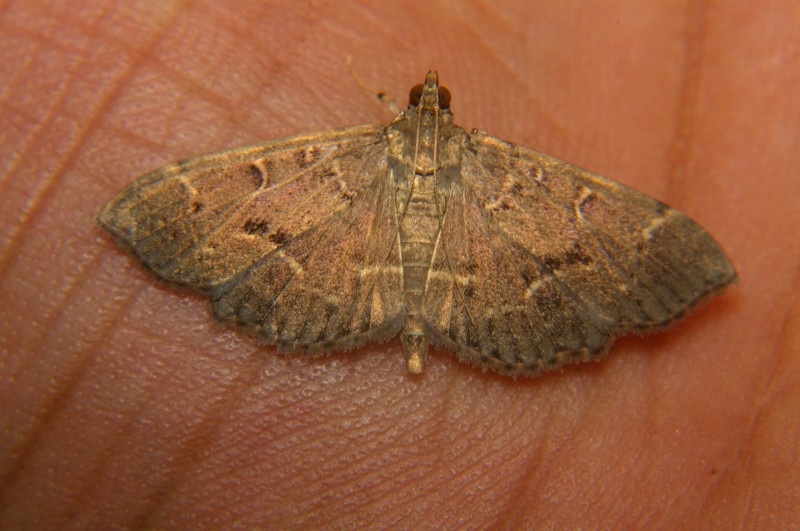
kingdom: Animalia
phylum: Arthropoda
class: Insecta
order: Lepidoptera
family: Crambidae
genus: Syllepte
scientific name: Syllepte
